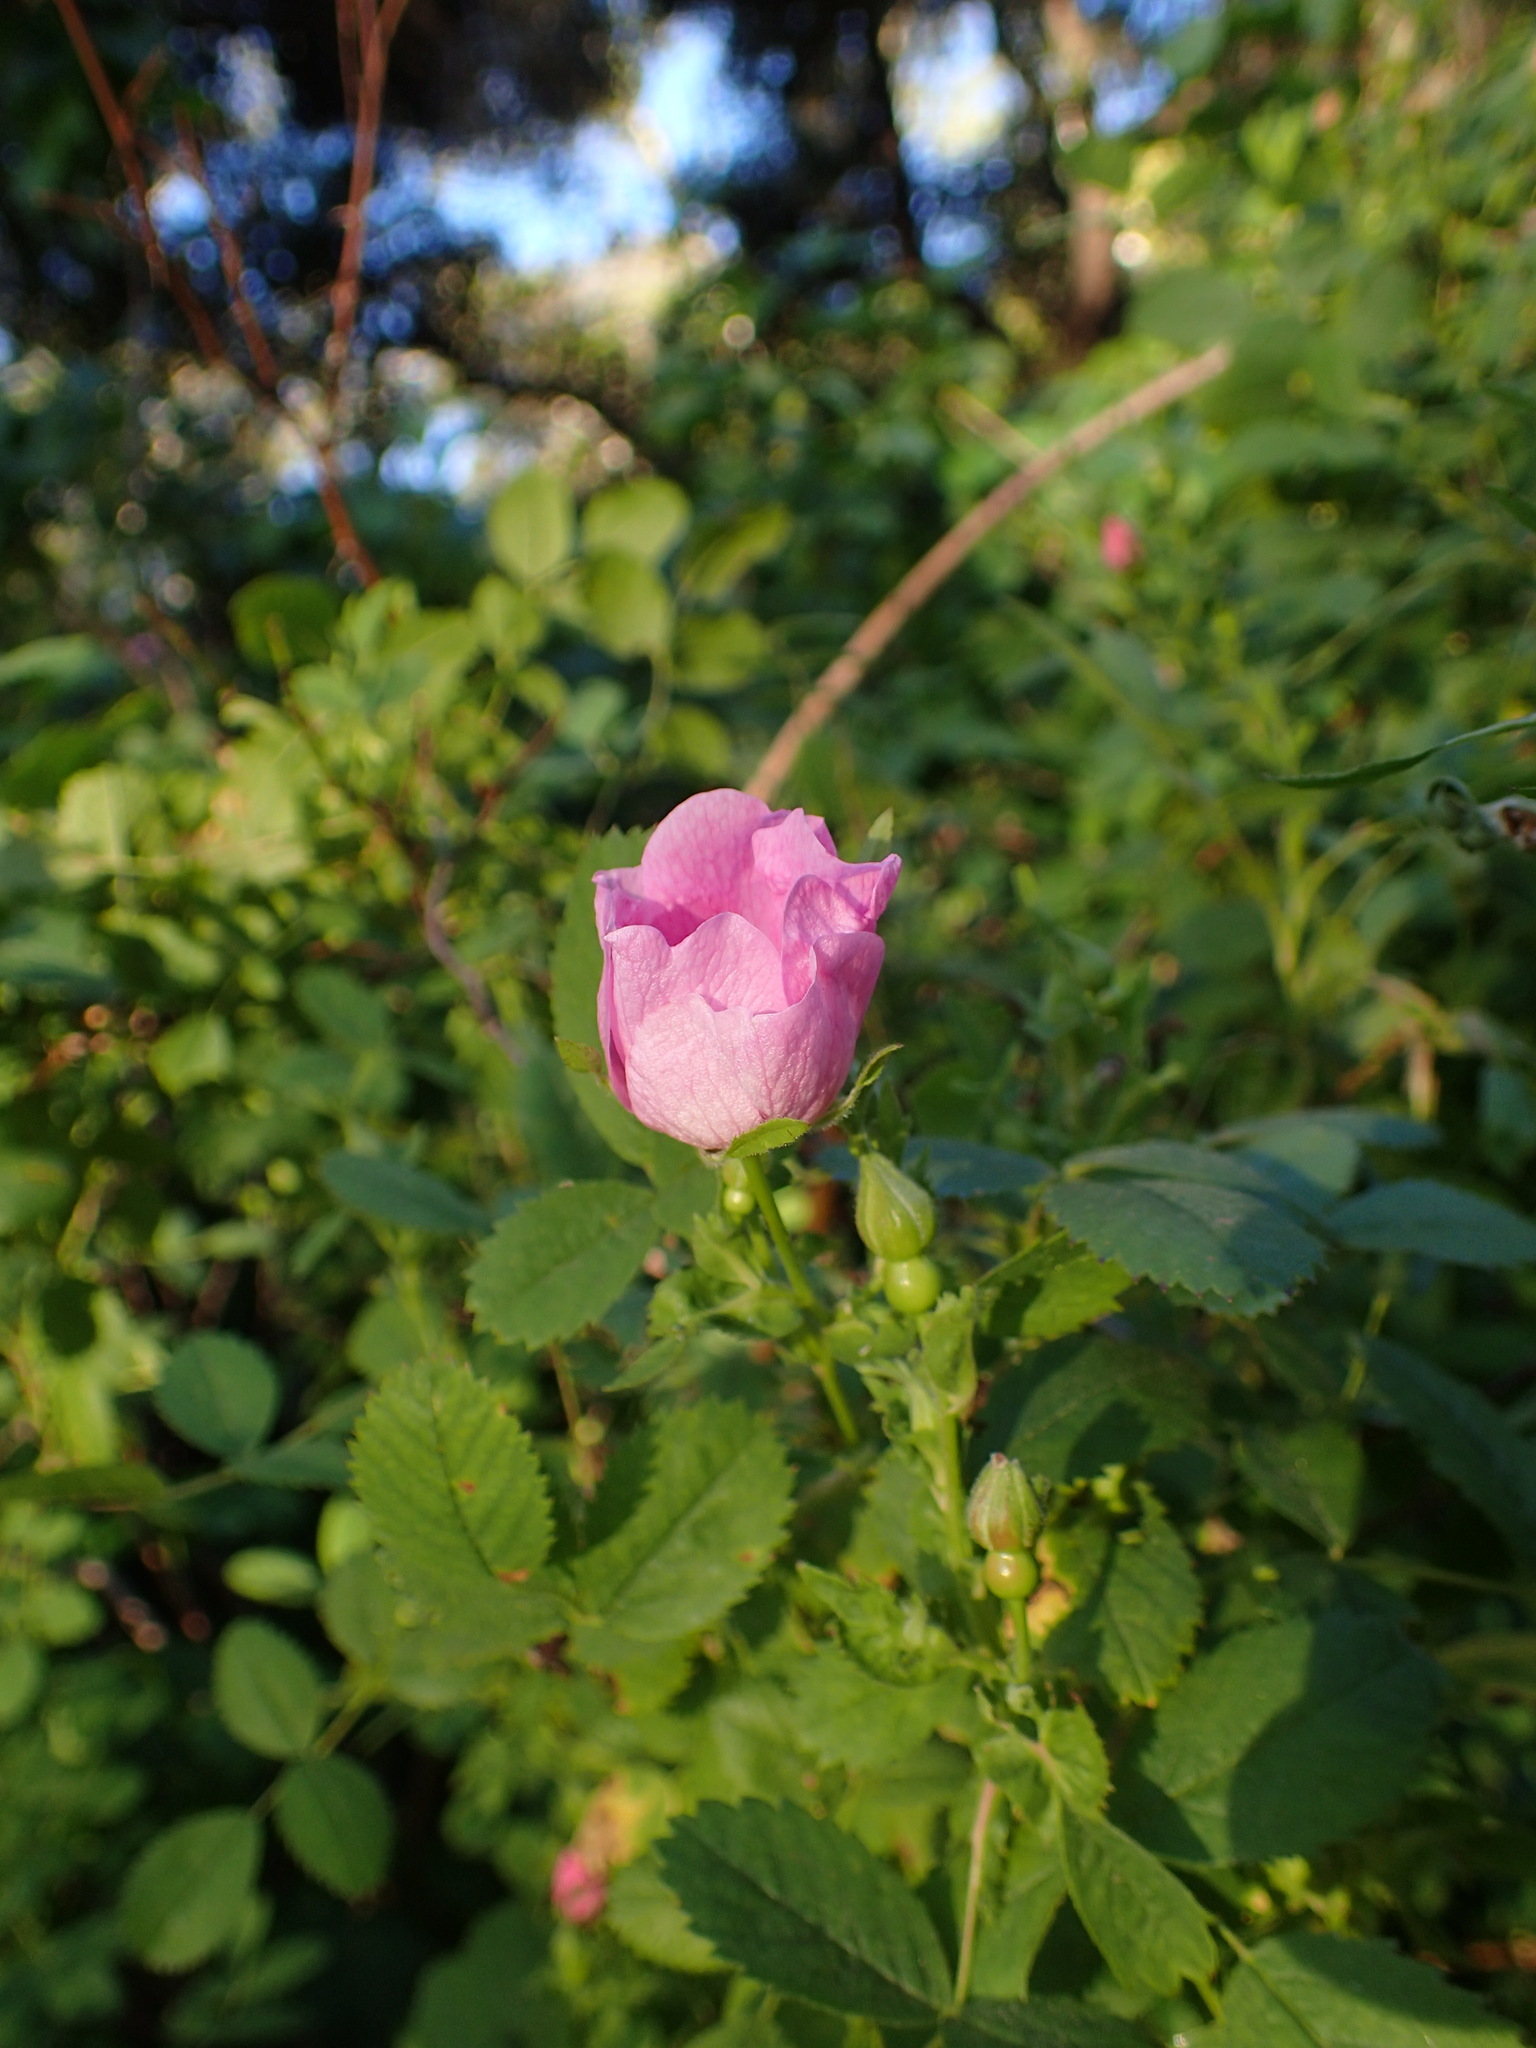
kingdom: Plantae
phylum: Tracheophyta
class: Magnoliopsida
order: Rosales
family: Rosaceae
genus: Rosa
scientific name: Rosa californica
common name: California rose
